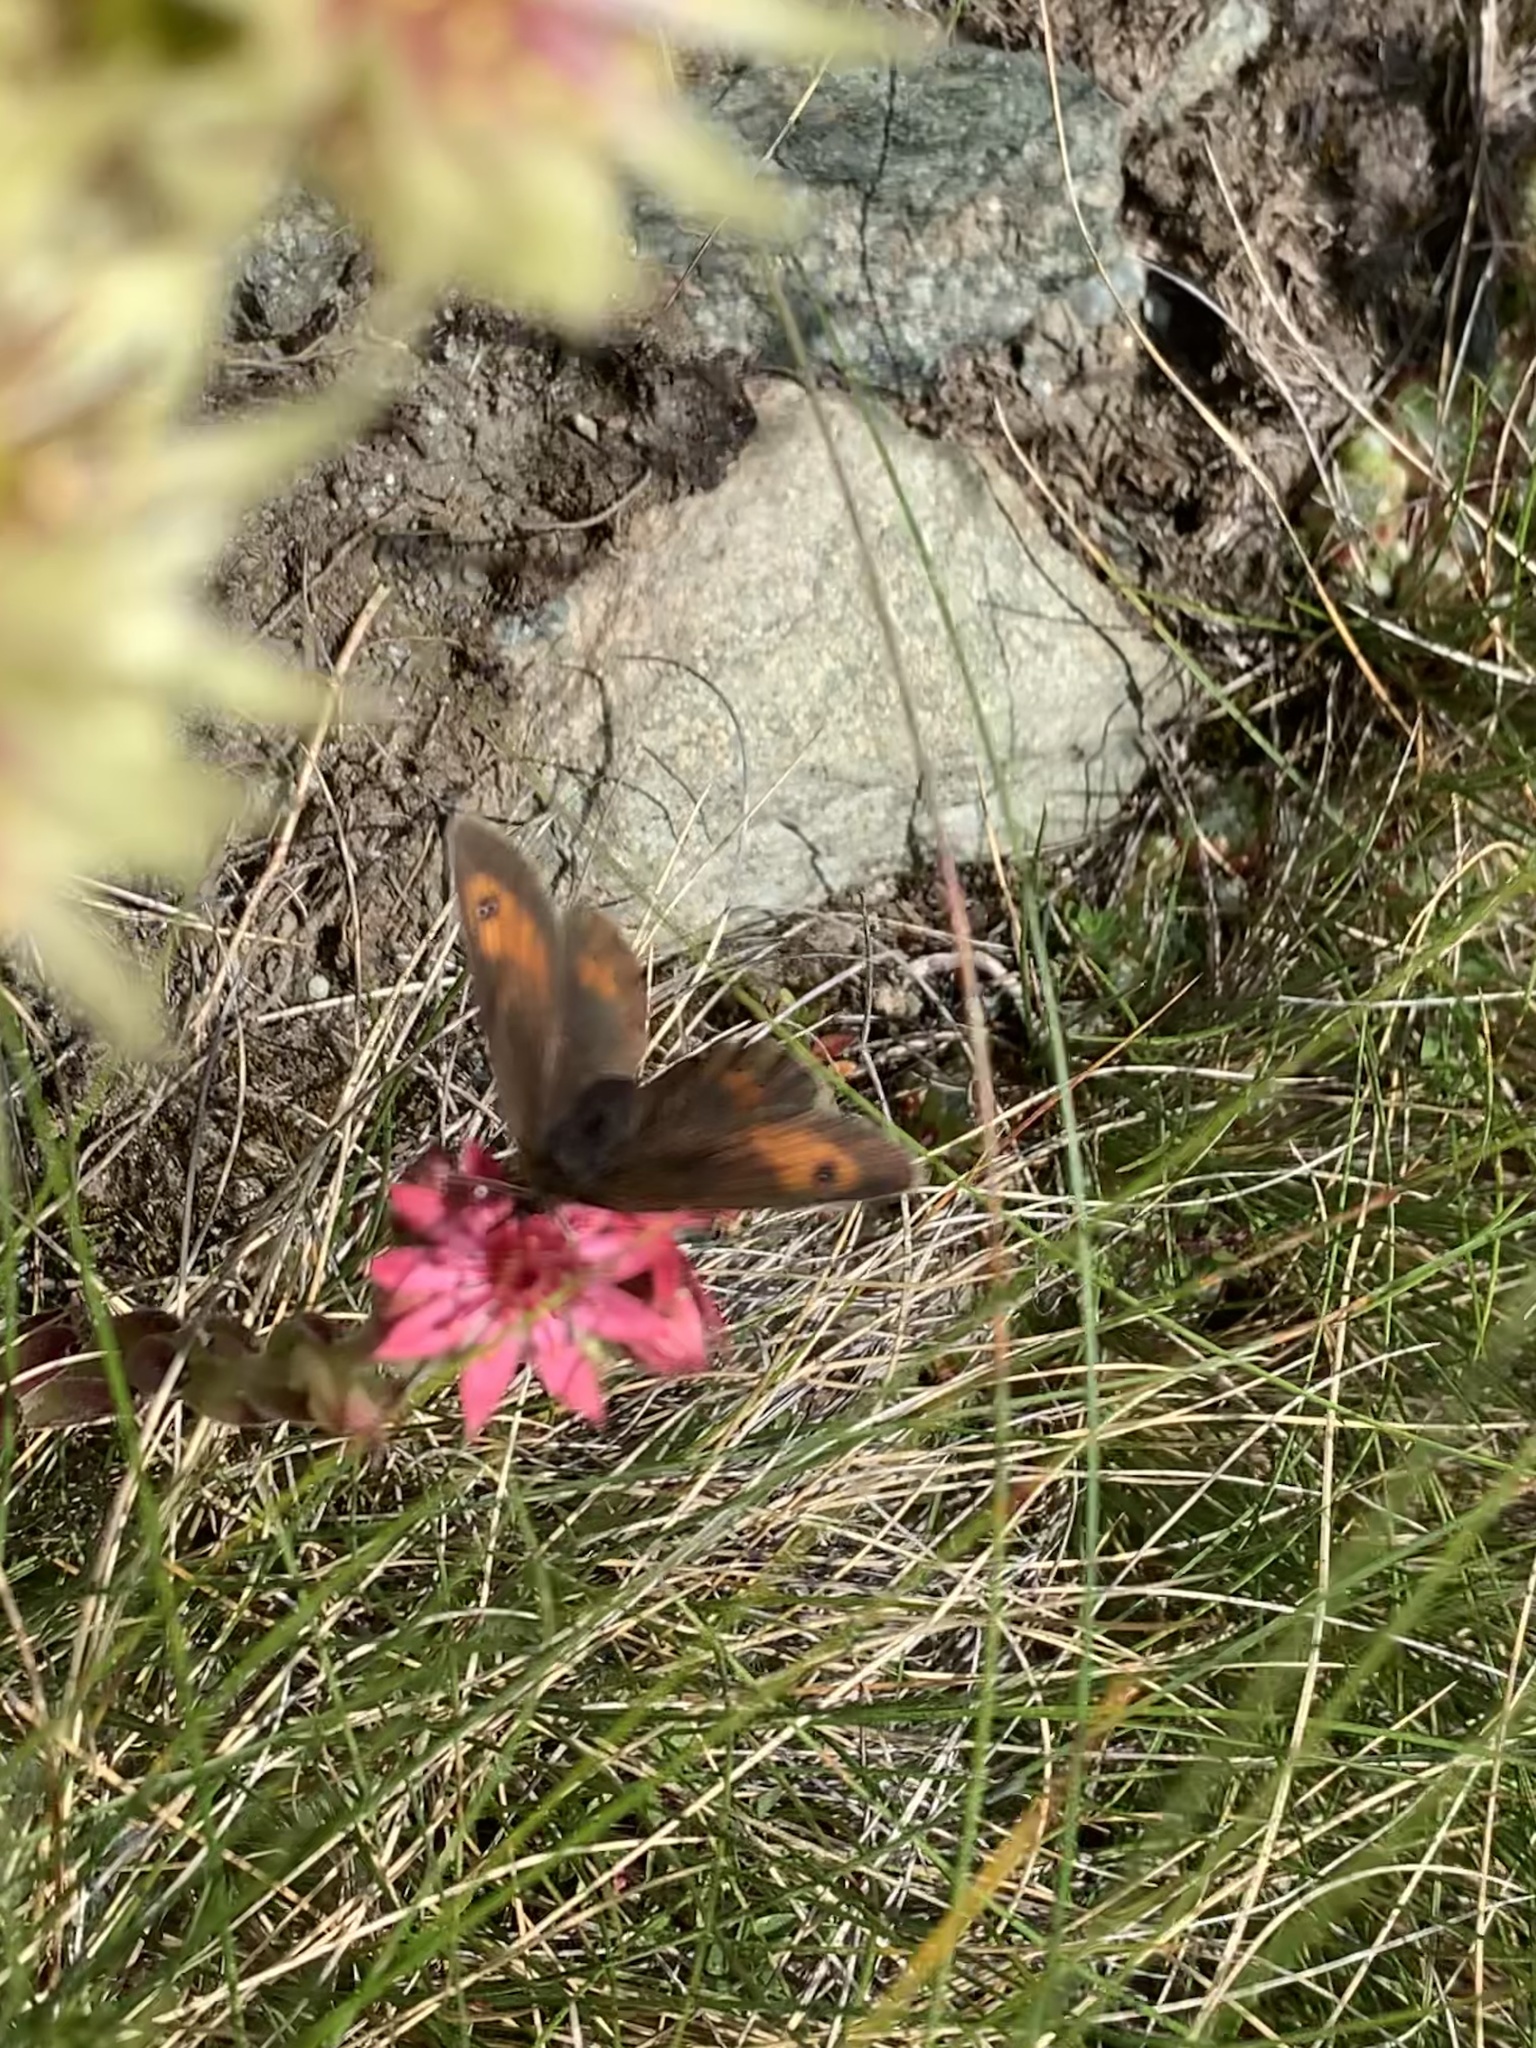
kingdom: Animalia
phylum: Arthropoda
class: Insecta
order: Lepidoptera
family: Nymphalidae
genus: Erebia
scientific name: Erebia mnestra
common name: Mnestra’s ringlet
